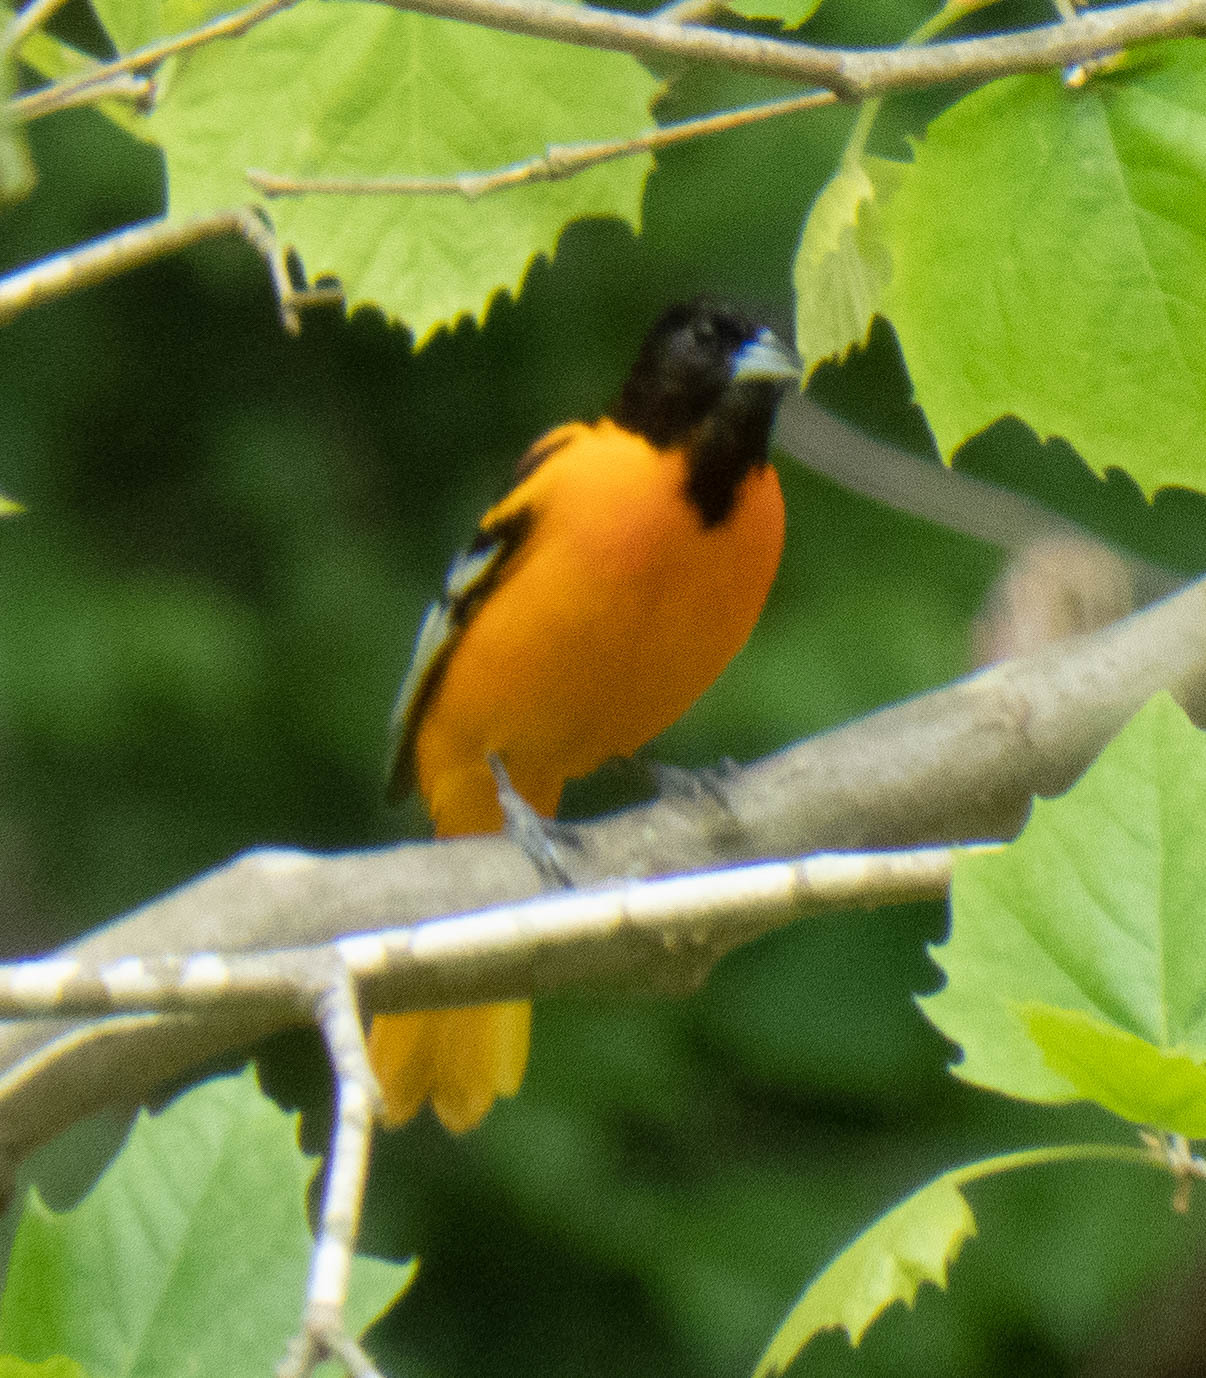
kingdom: Animalia
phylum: Chordata
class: Aves
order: Passeriformes
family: Icteridae
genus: Icterus
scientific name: Icterus galbula
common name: Baltimore oriole
